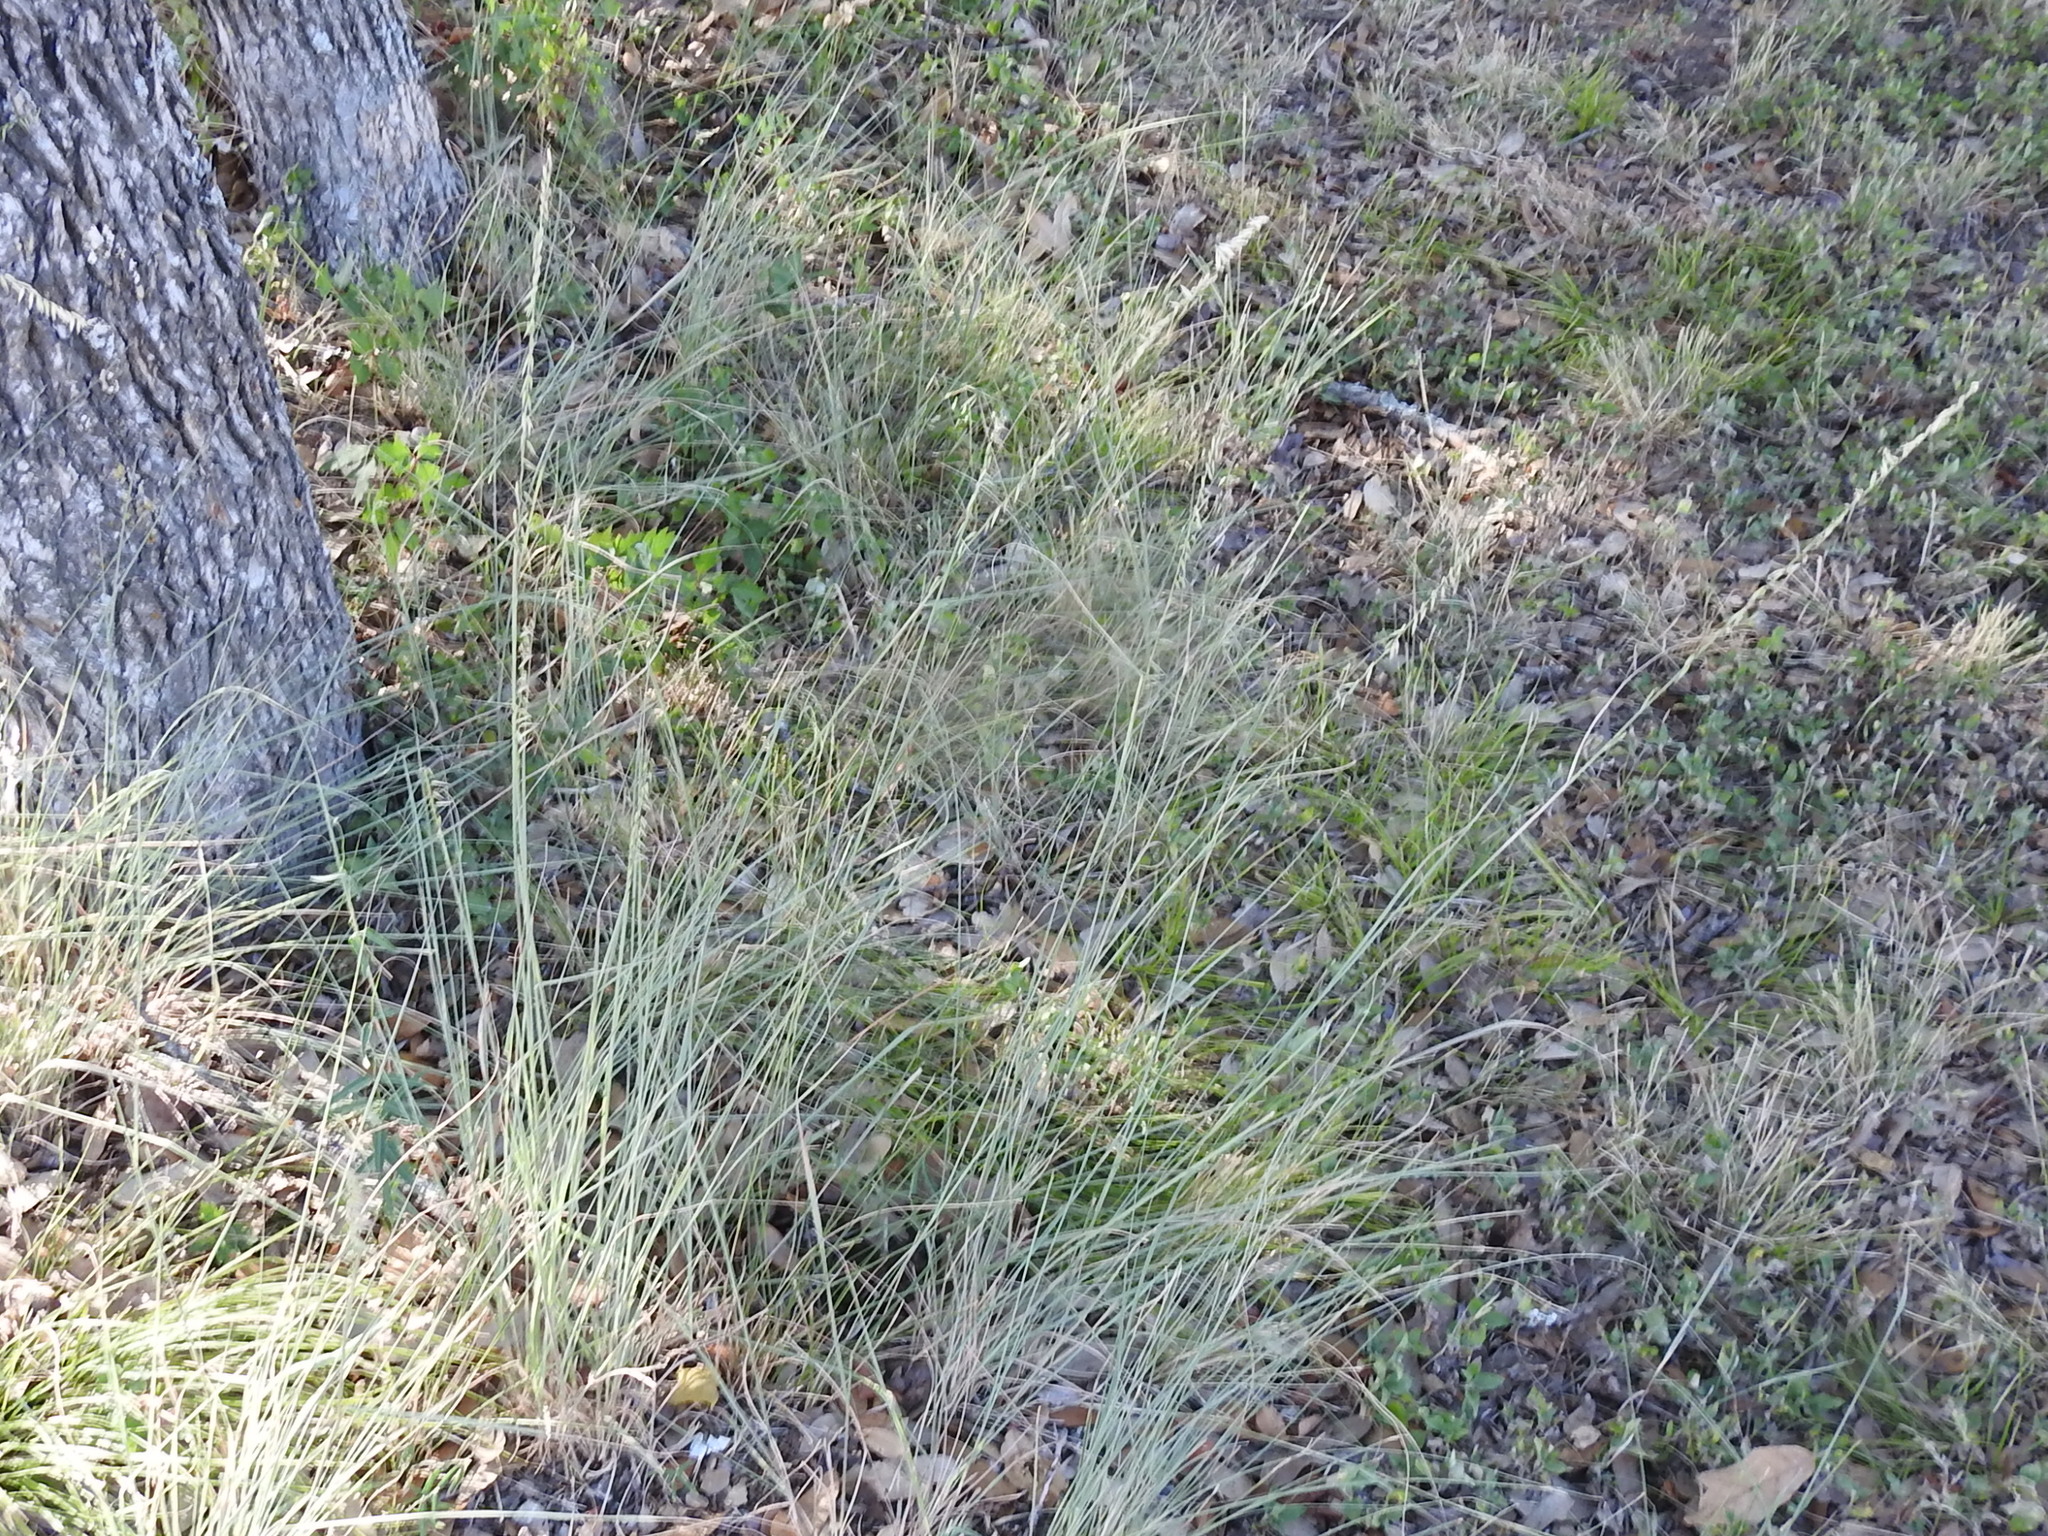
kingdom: Plantae
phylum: Tracheophyta
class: Liliopsida
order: Poales
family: Poaceae
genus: Bouteloua
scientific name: Bouteloua curtipendula
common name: Side-oats grama
